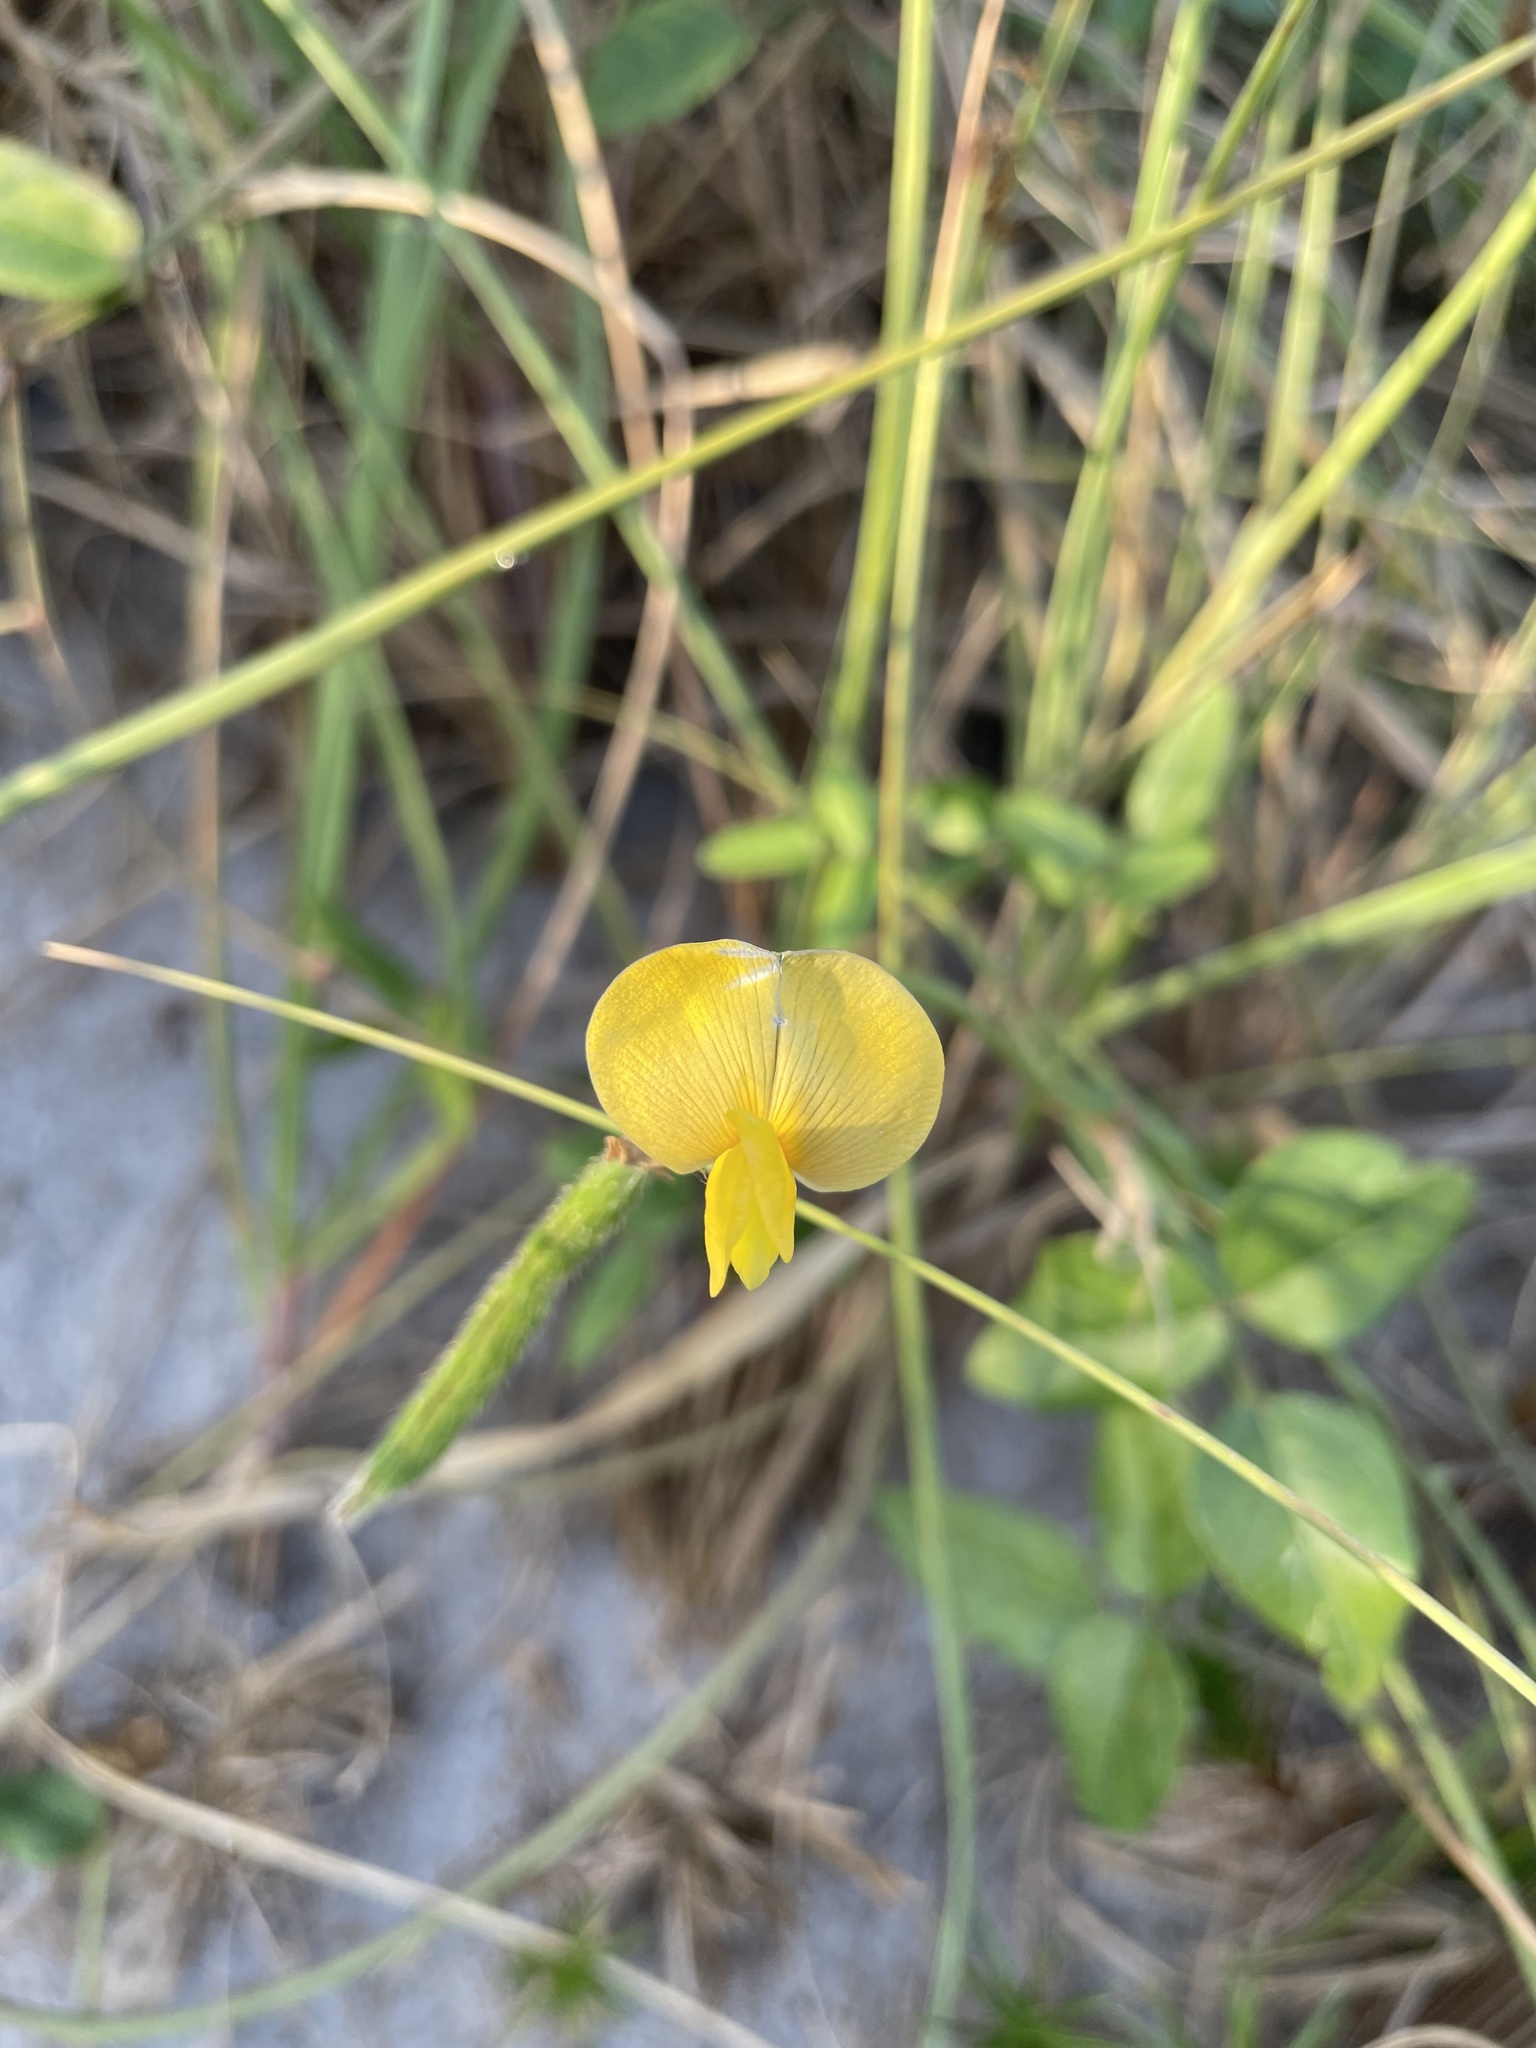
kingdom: Plantae
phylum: Tracheophyta
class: Magnoliopsida
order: Fabales
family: Fabaceae
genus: Vigna
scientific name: Vigna luteola
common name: Hairypod cowpea
